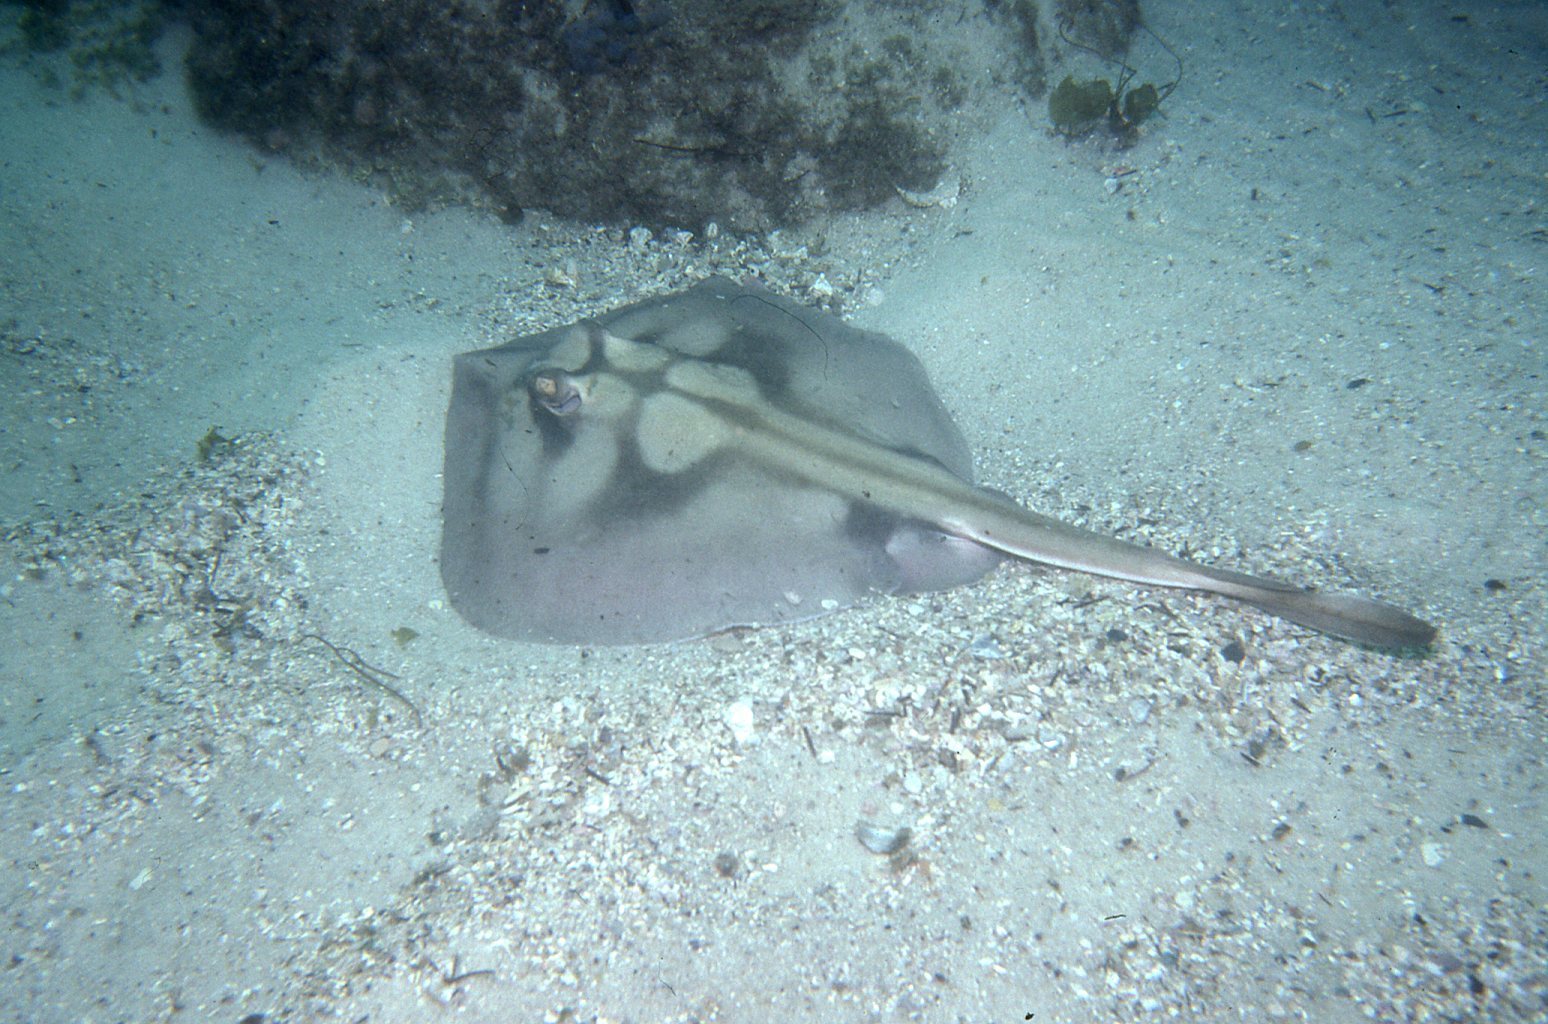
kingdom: Animalia
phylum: Chordata
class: Elasmobranchii
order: Myliobatiformes
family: Urolophidae
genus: Urolophus
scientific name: Urolophus kapalensis
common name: Kapala stingaree
